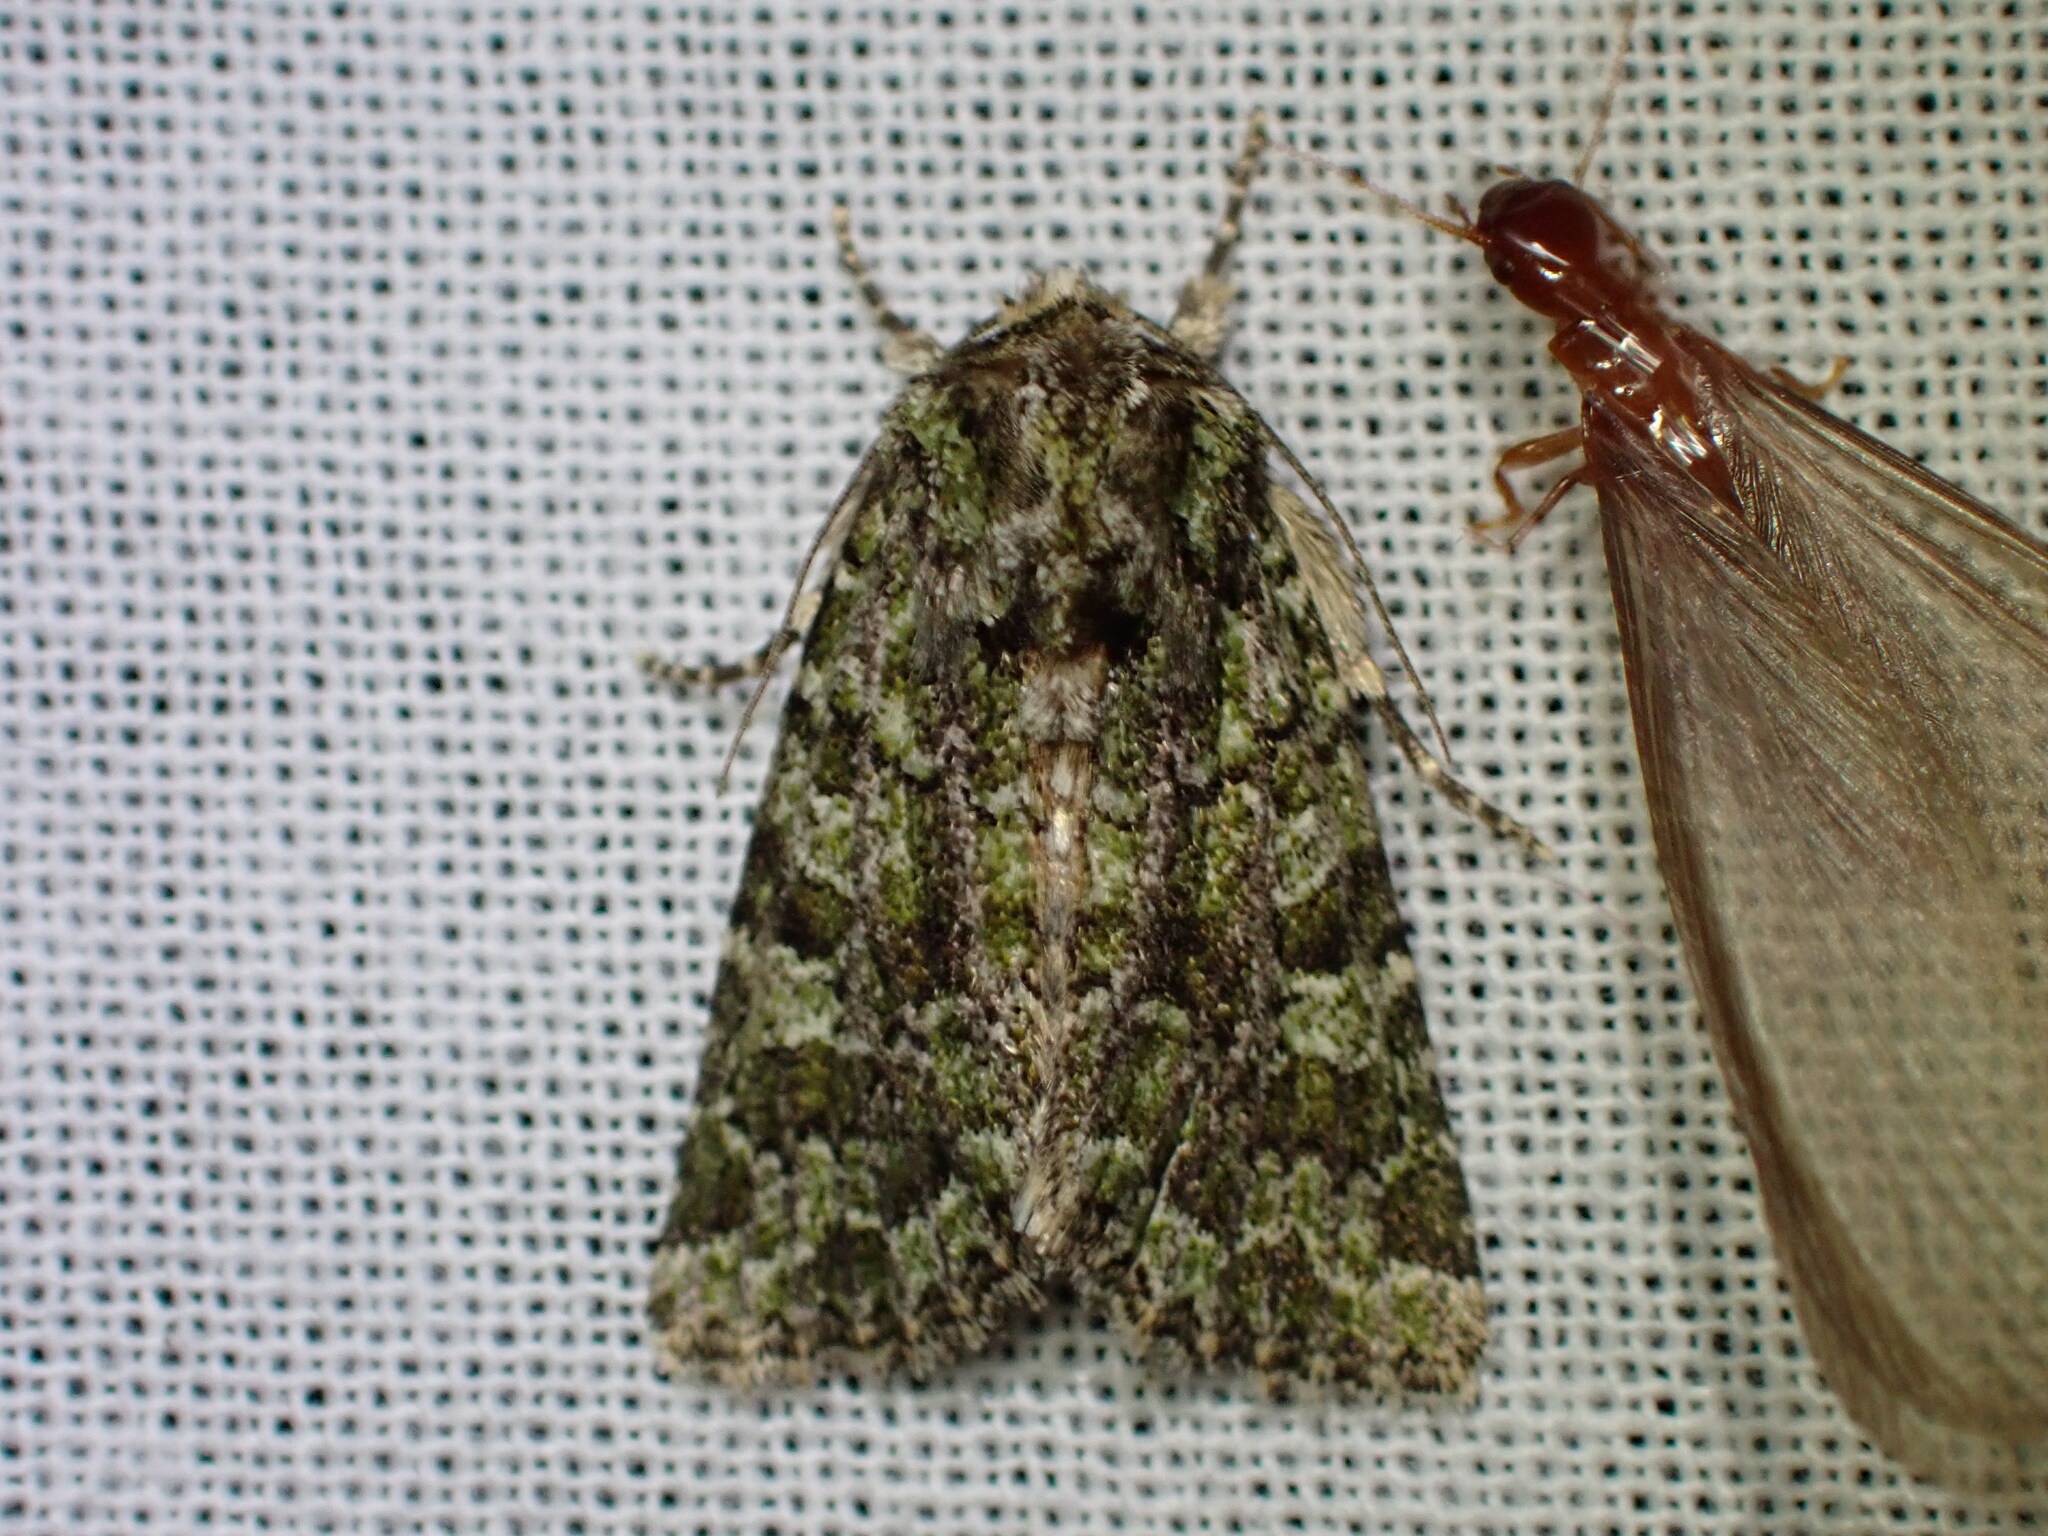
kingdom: Animalia
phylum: Arthropoda
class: Insecta
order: Lepidoptera
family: Noctuidae
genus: Aseptis
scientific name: Aseptis marina
